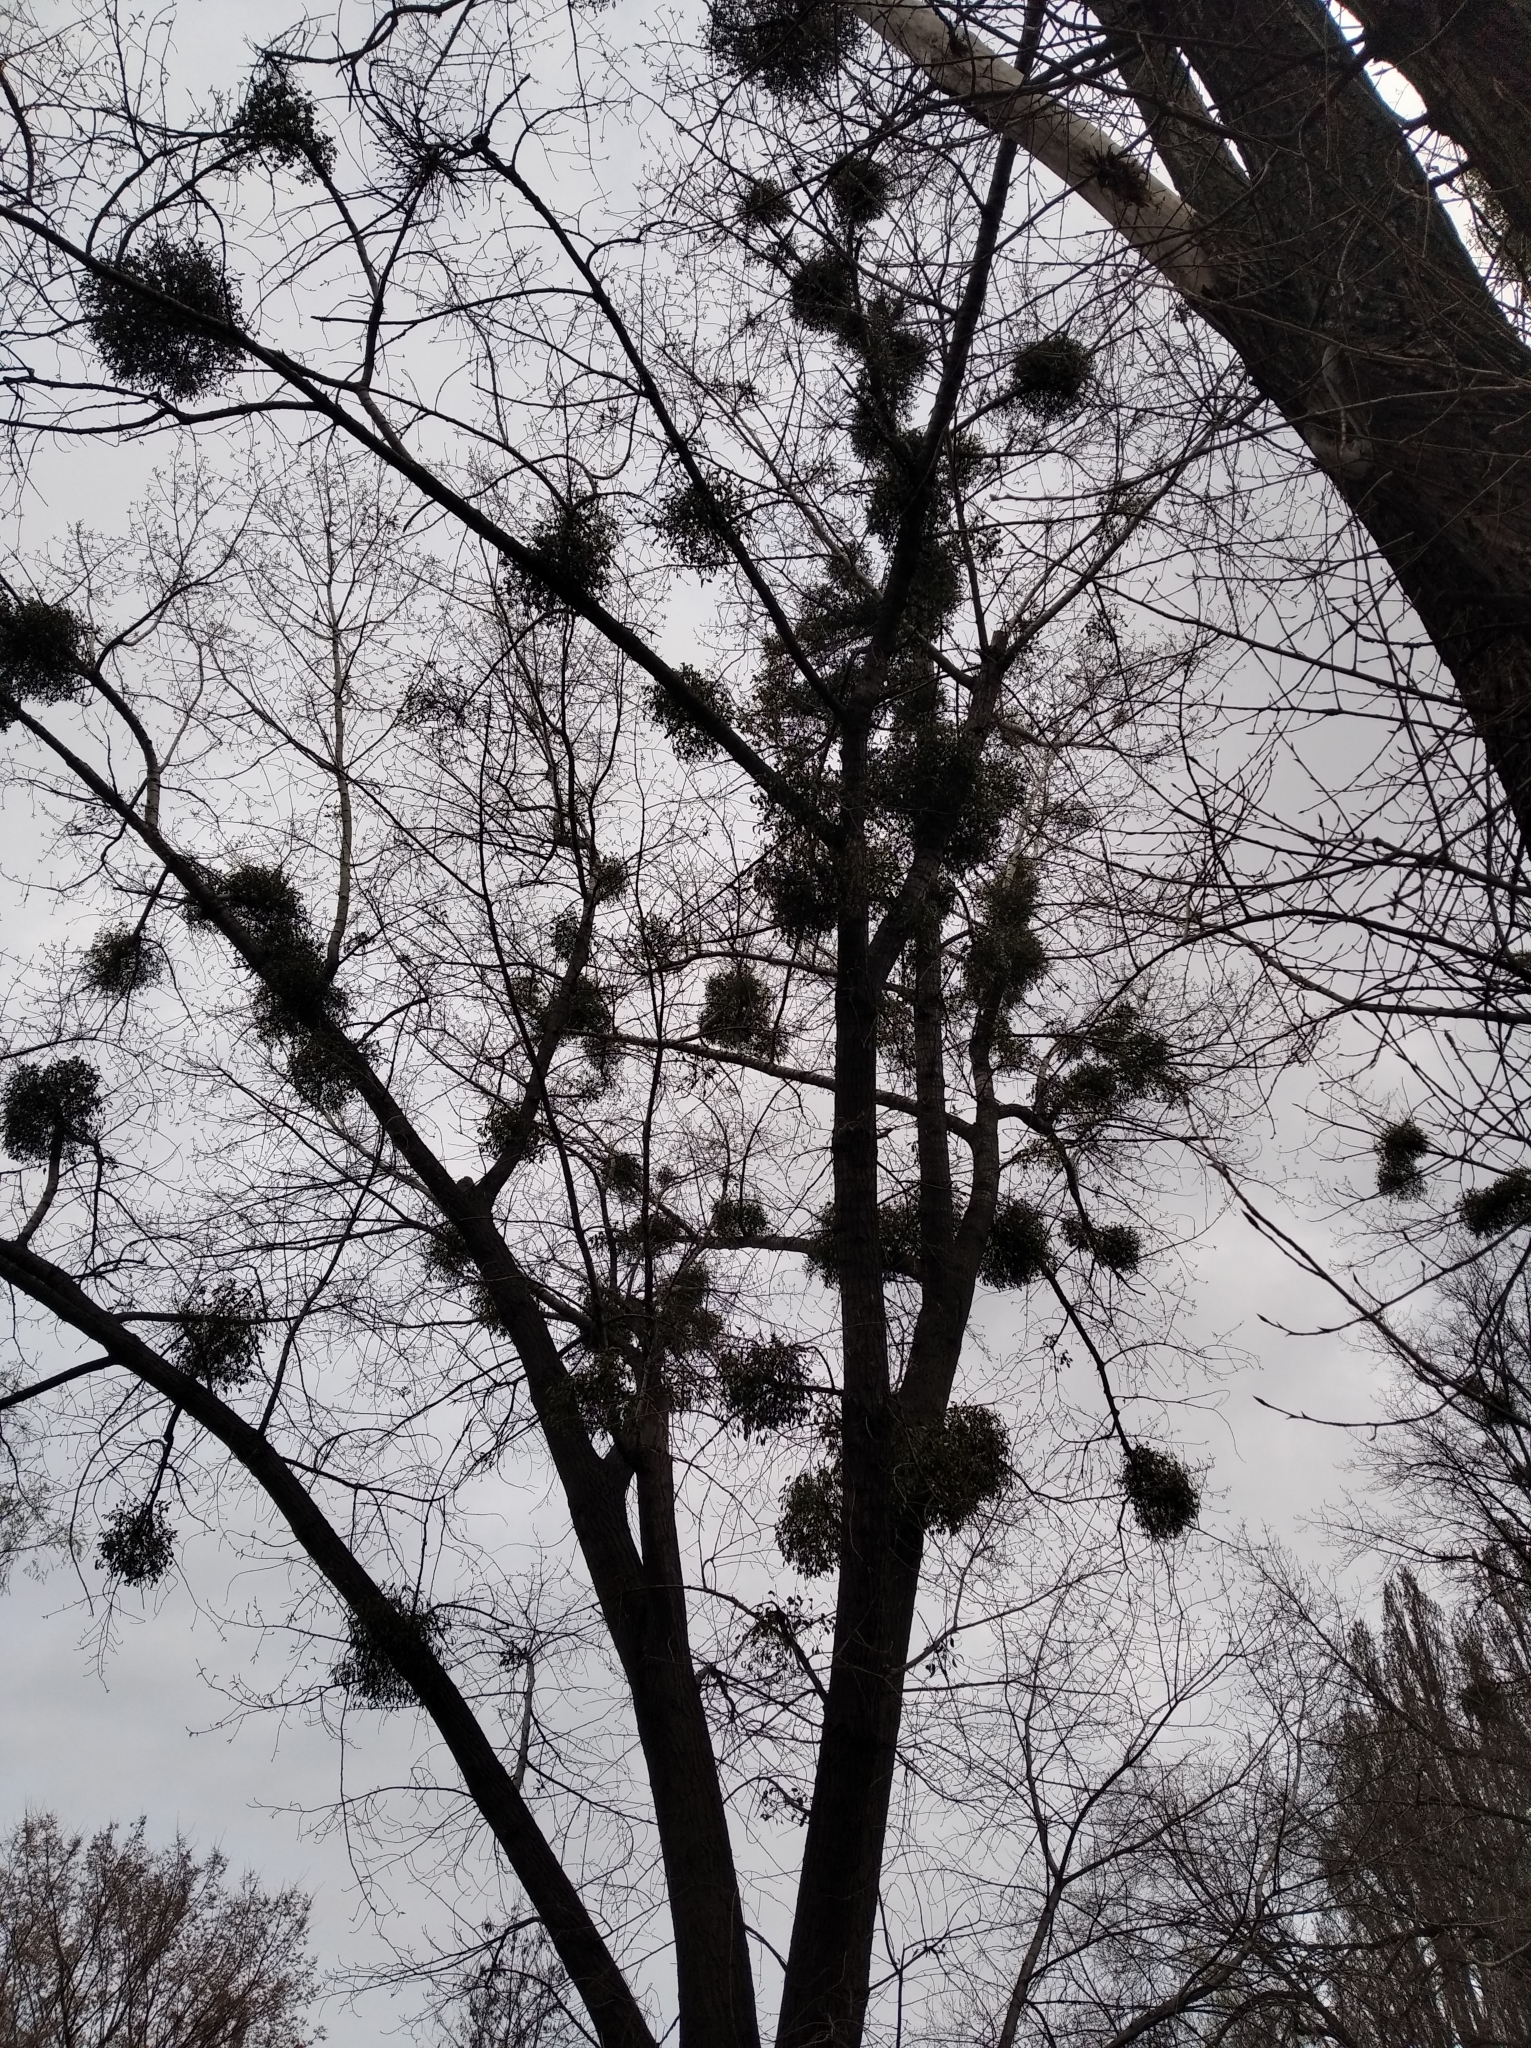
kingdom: Plantae
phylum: Tracheophyta
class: Magnoliopsida
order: Santalales
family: Viscaceae
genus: Viscum
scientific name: Viscum album
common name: Mistletoe
